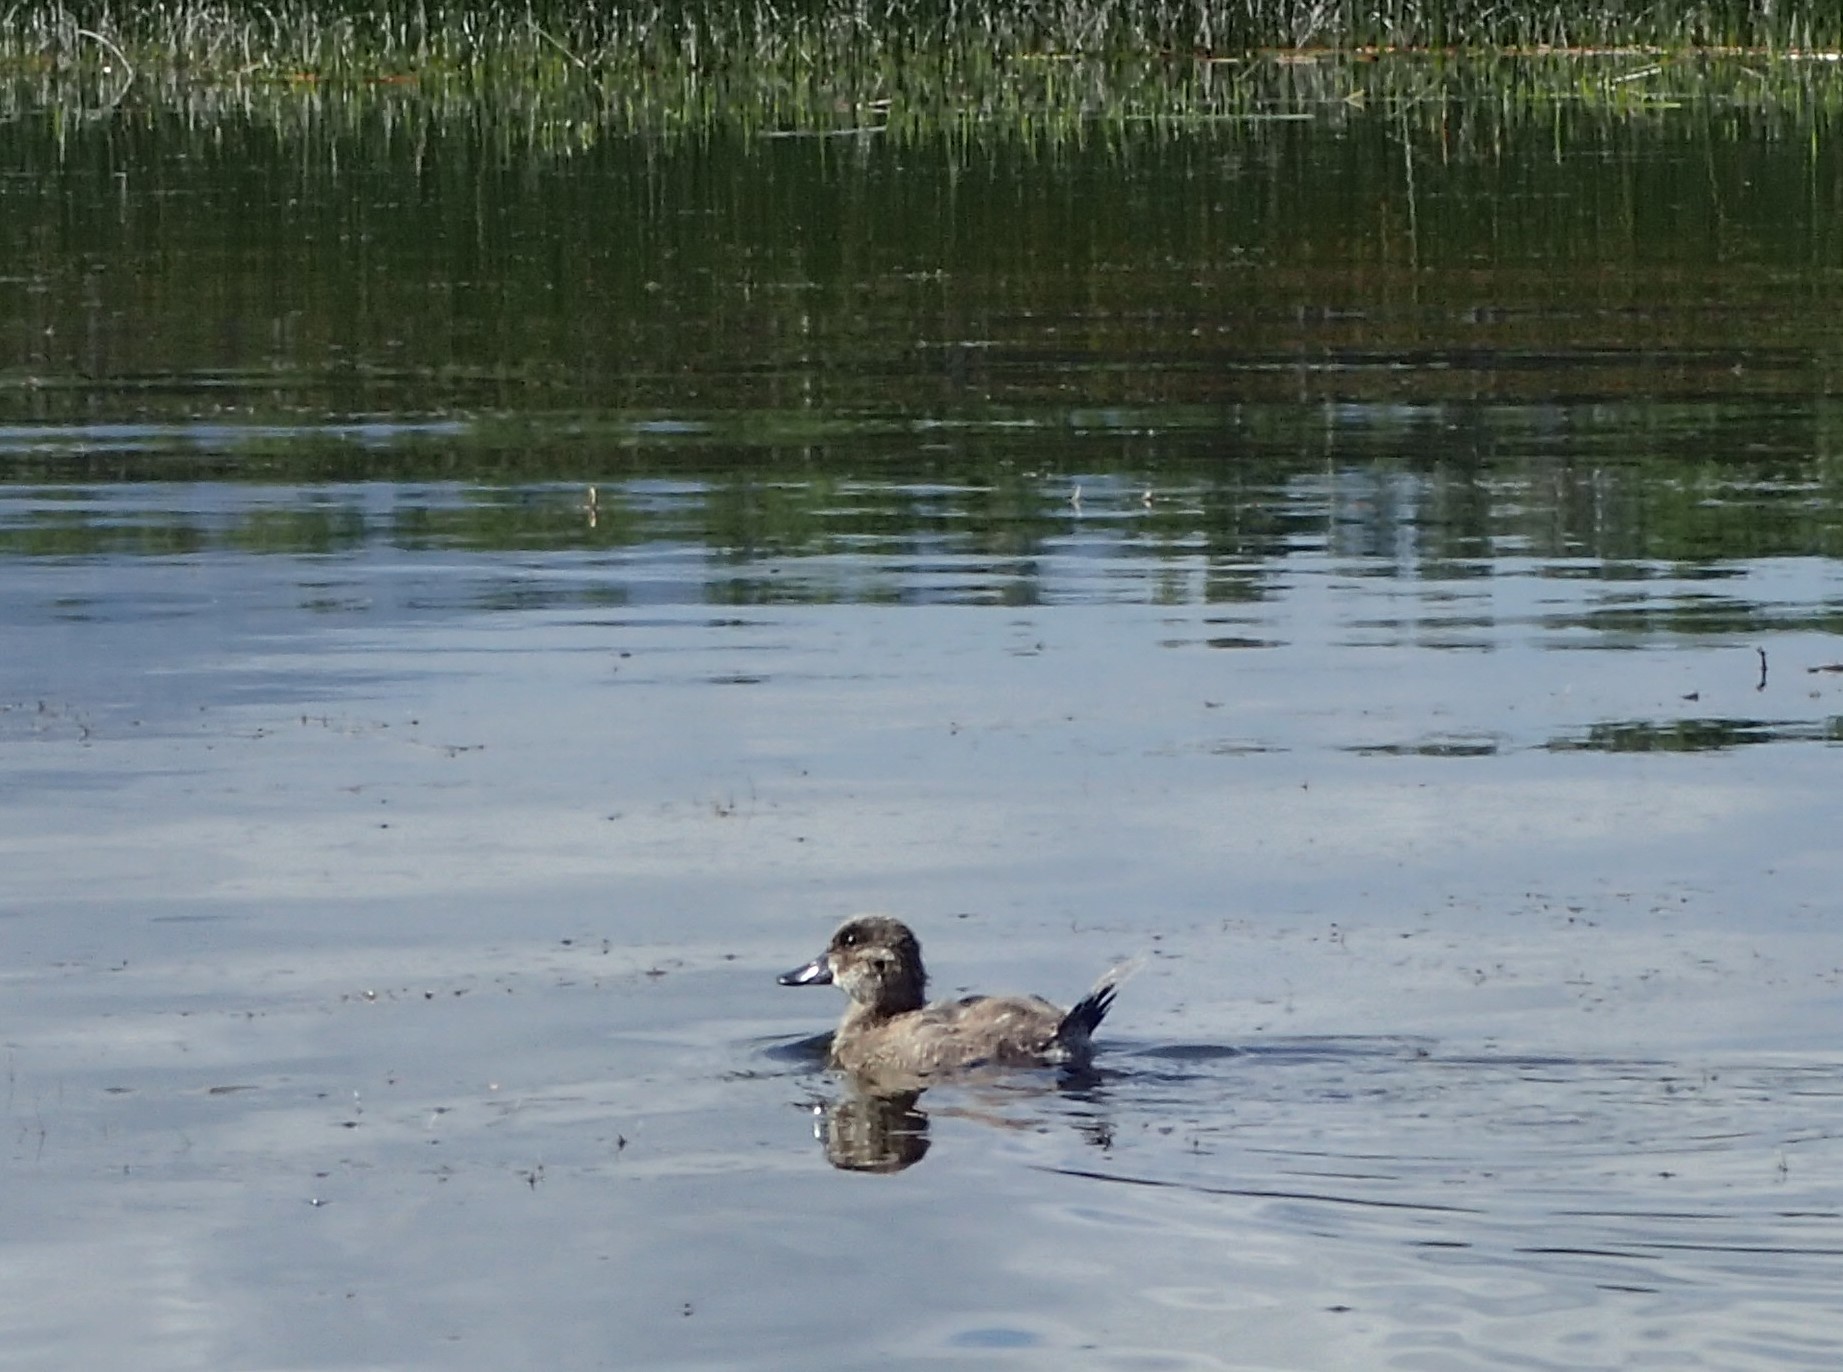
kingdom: Animalia
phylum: Chordata
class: Aves
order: Anseriformes
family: Anatidae
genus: Oxyura
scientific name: Oxyura jamaicensis
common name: Ruddy duck
